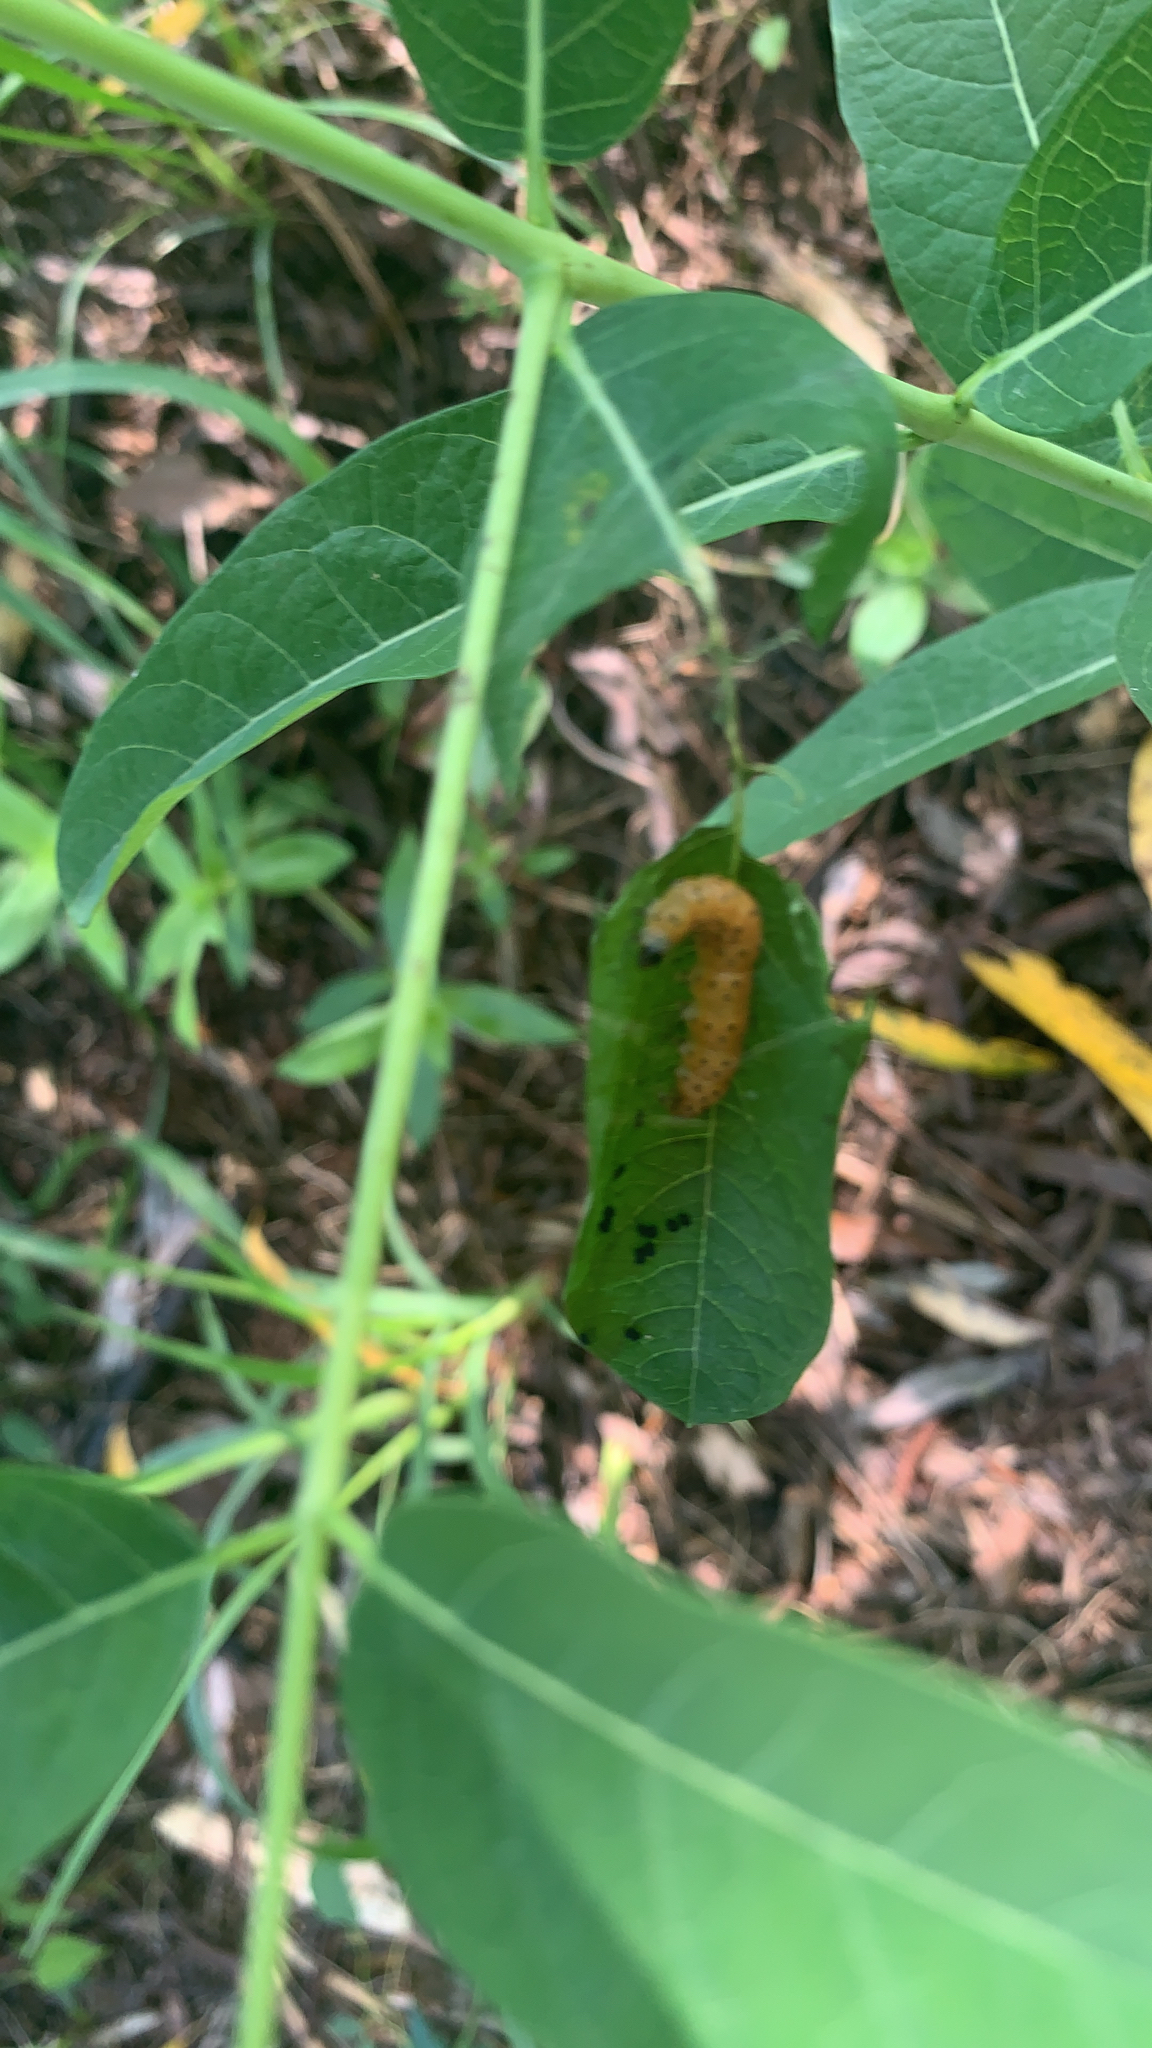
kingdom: Animalia
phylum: Arthropoda
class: Insecta
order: Lepidoptera
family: Crambidae
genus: Saucrobotys
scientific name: Saucrobotys futilalis
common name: Dogbane saucrobotys moth
